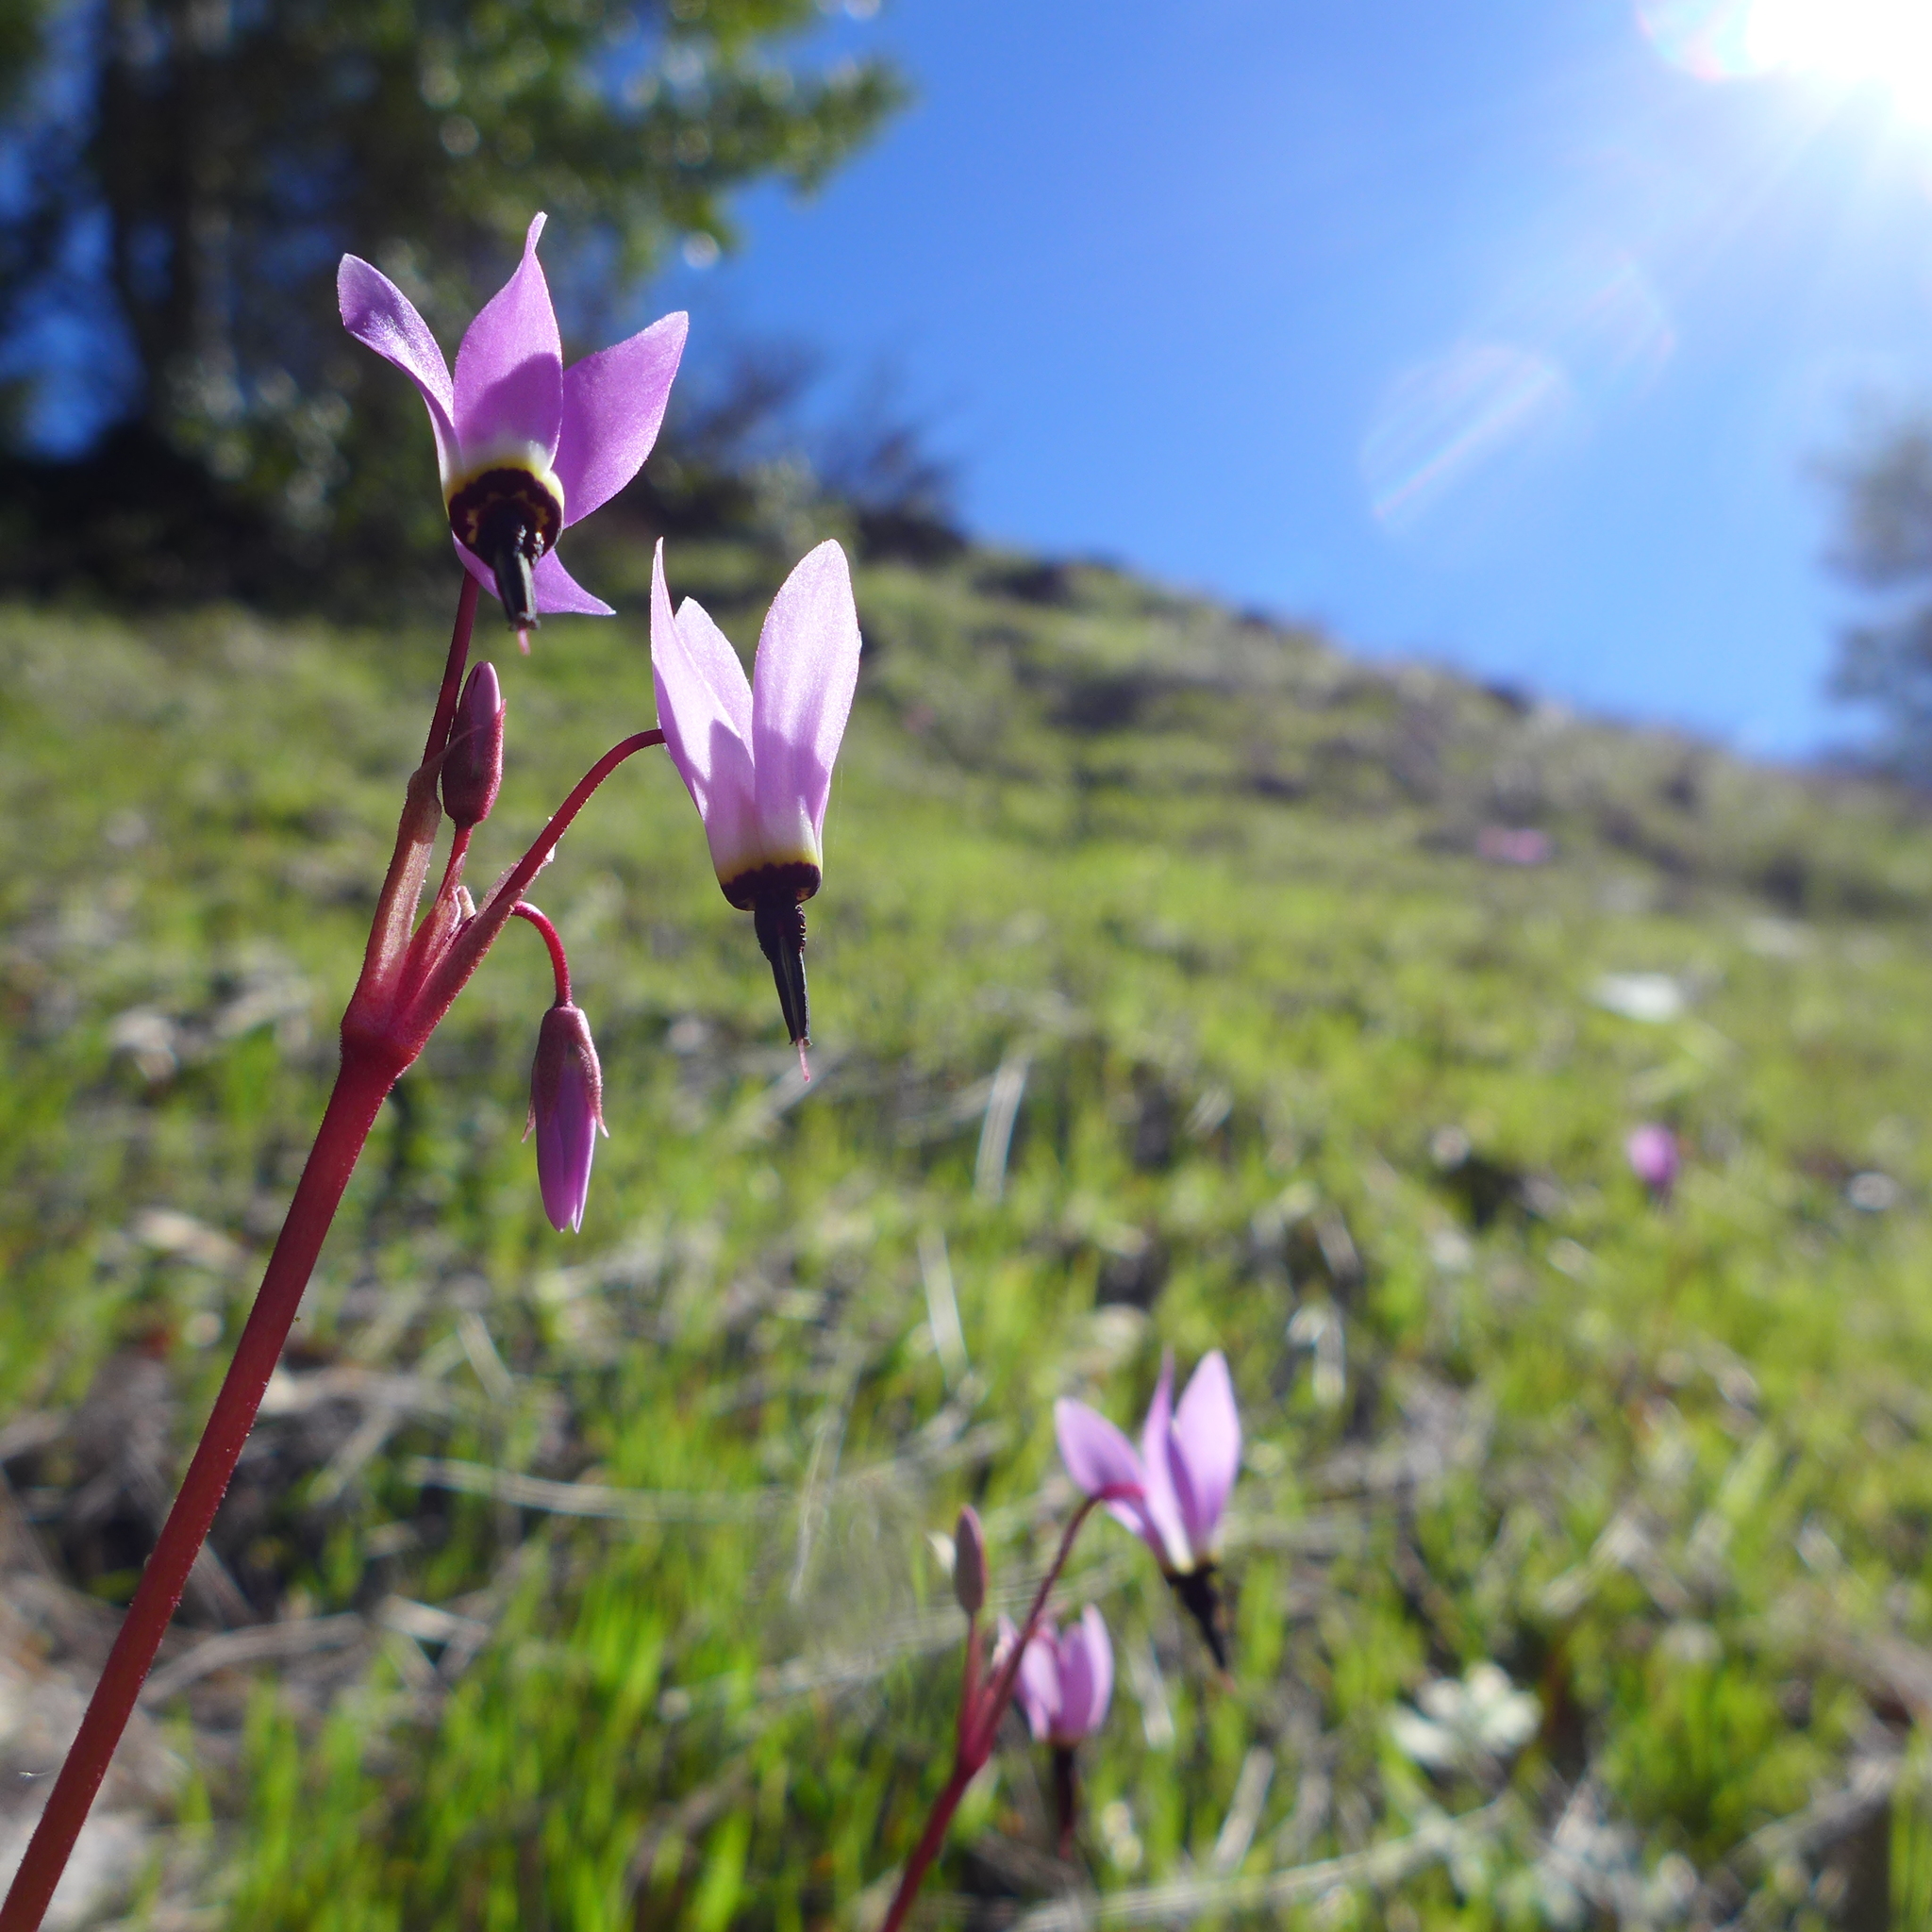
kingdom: Plantae
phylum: Tracheophyta
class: Magnoliopsida
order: Ericales
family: Primulaceae
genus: Dodecatheon
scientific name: Dodecatheon hendersonii
